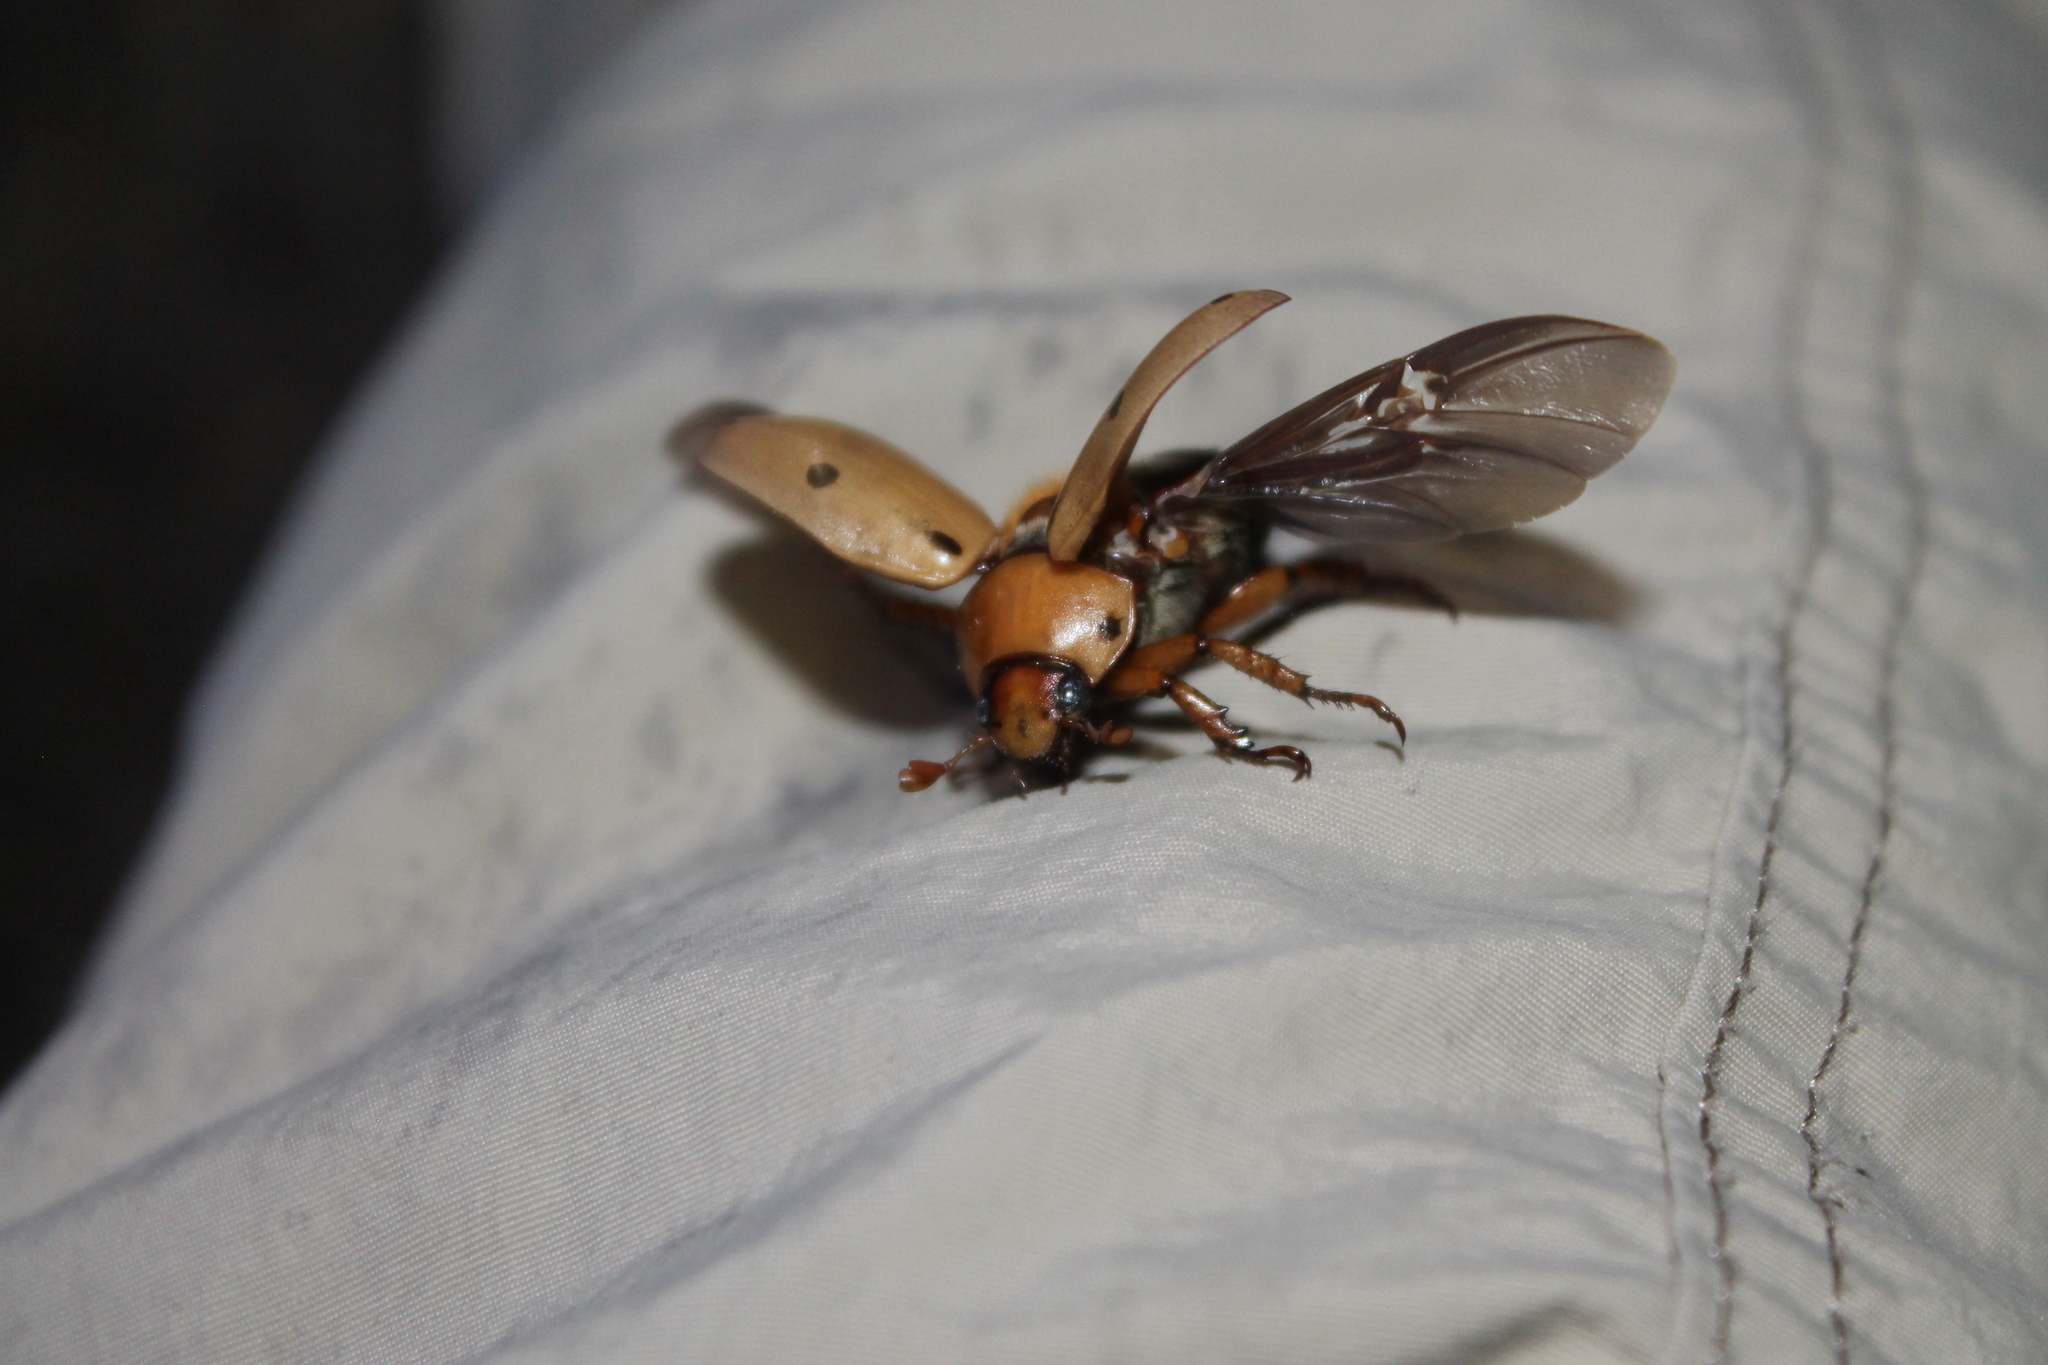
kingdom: Animalia
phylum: Arthropoda
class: Insecta
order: Coleoptera
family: Scarabaeidae
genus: Pelidnota
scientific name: Pelidnota punctata
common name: Grapevine beetle
